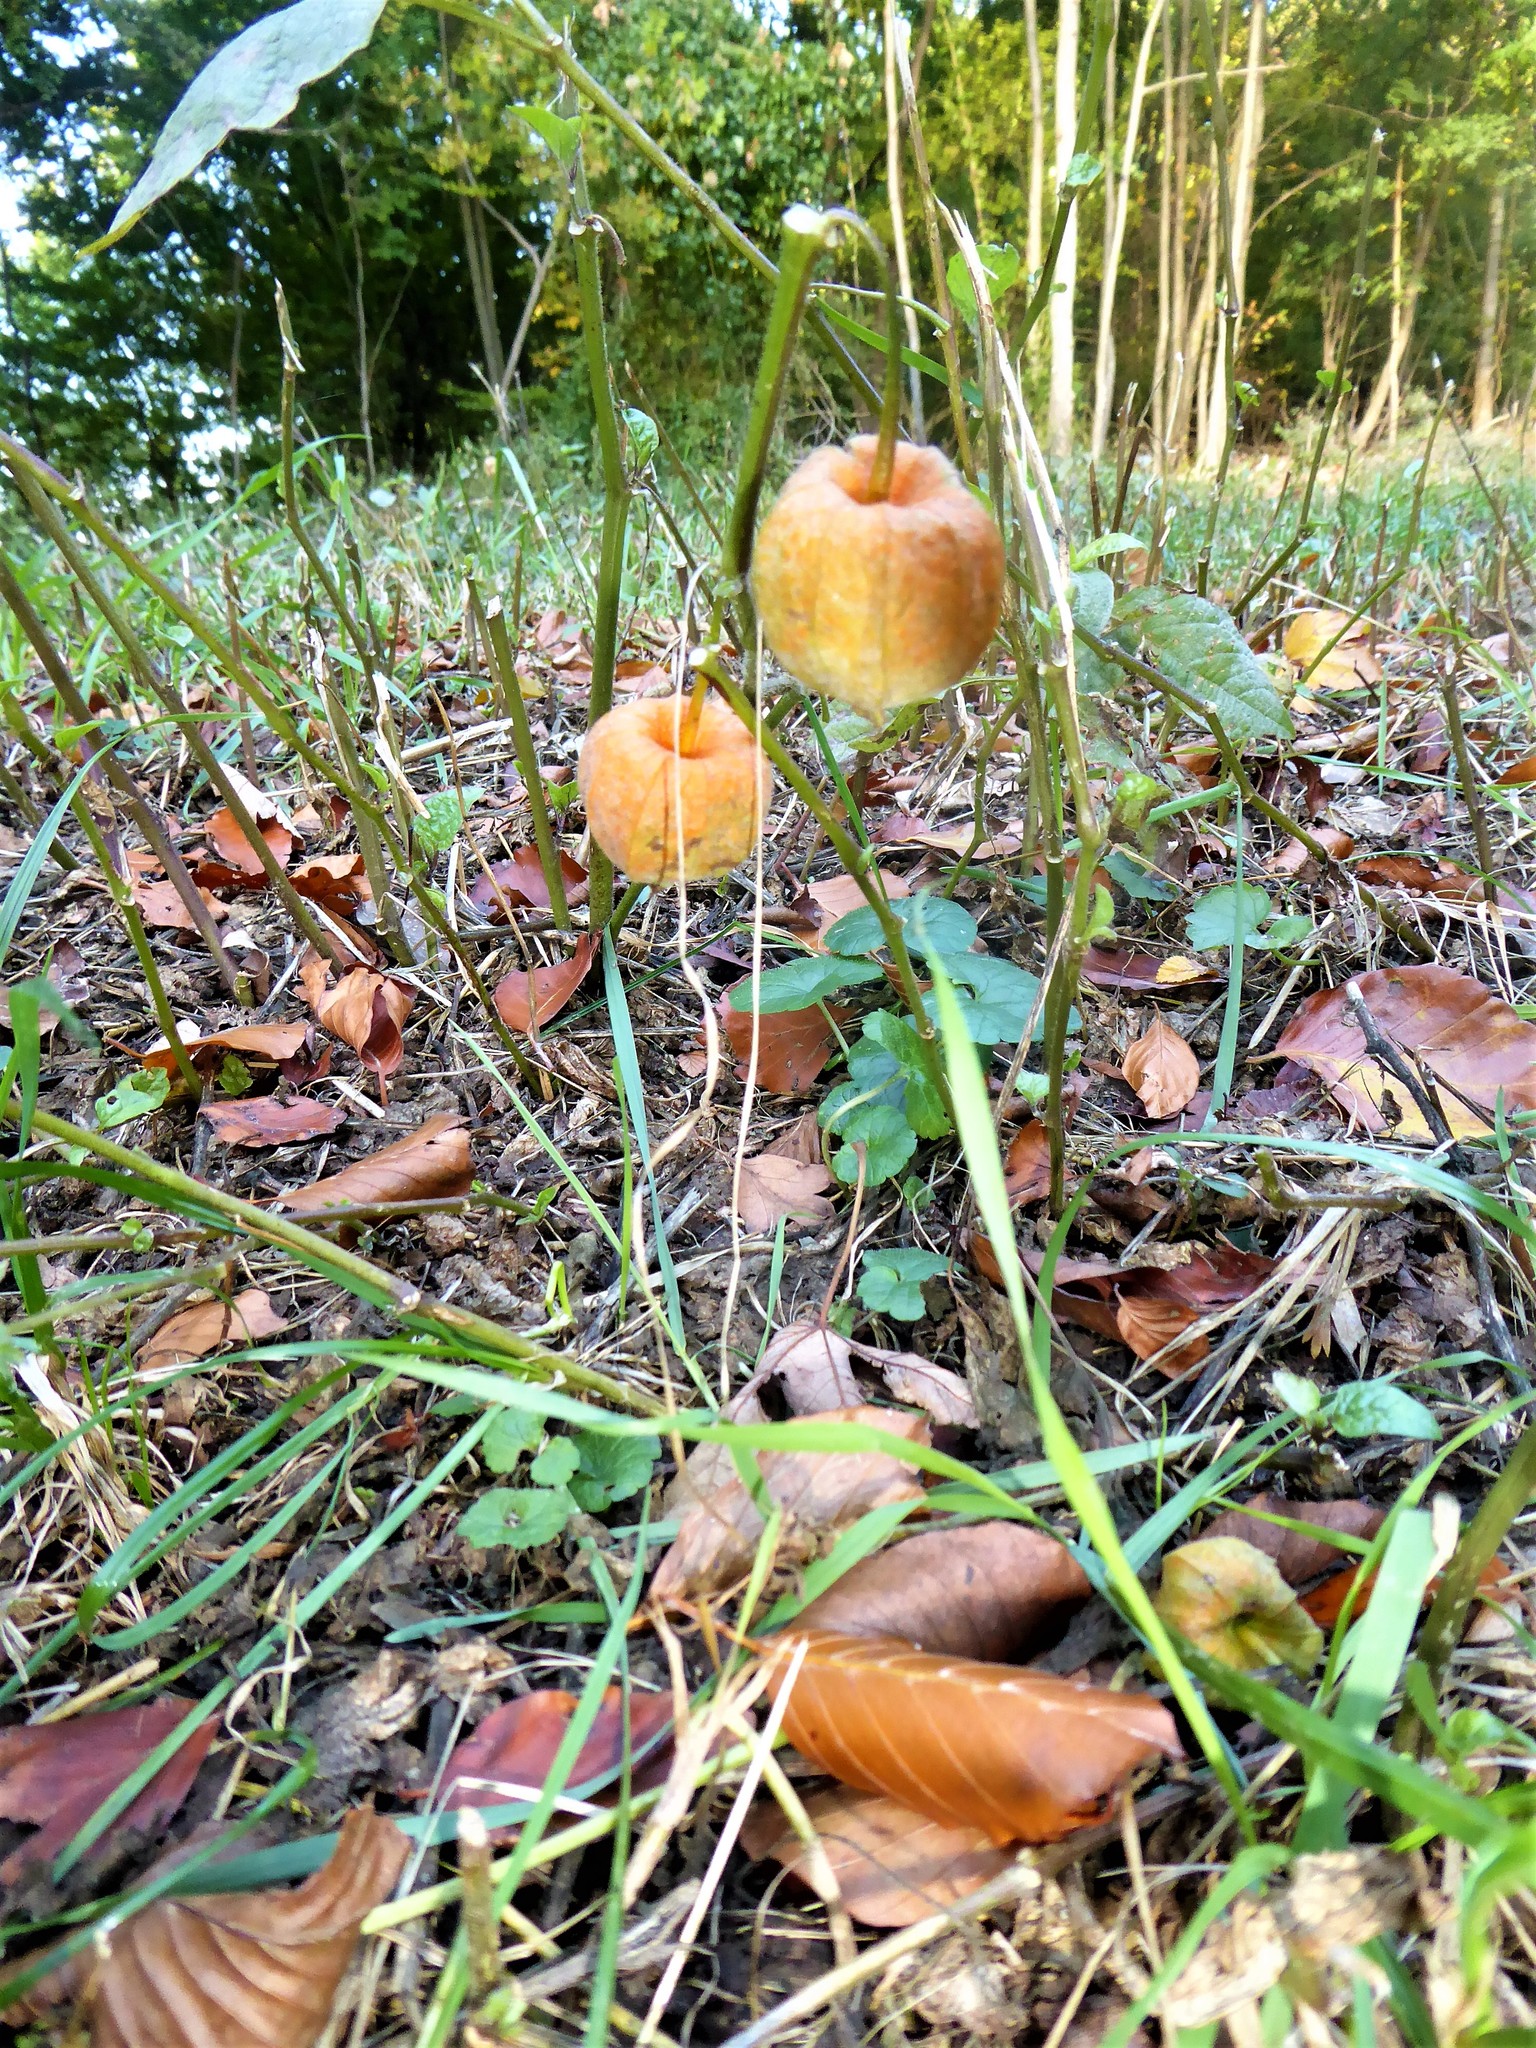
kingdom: Plantae
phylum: Tracheophyta
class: Magnoliopsida
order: Solanales
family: Solanaceae
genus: Alkekengi
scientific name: Alkekengi officinarum
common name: Japanese-lantern
